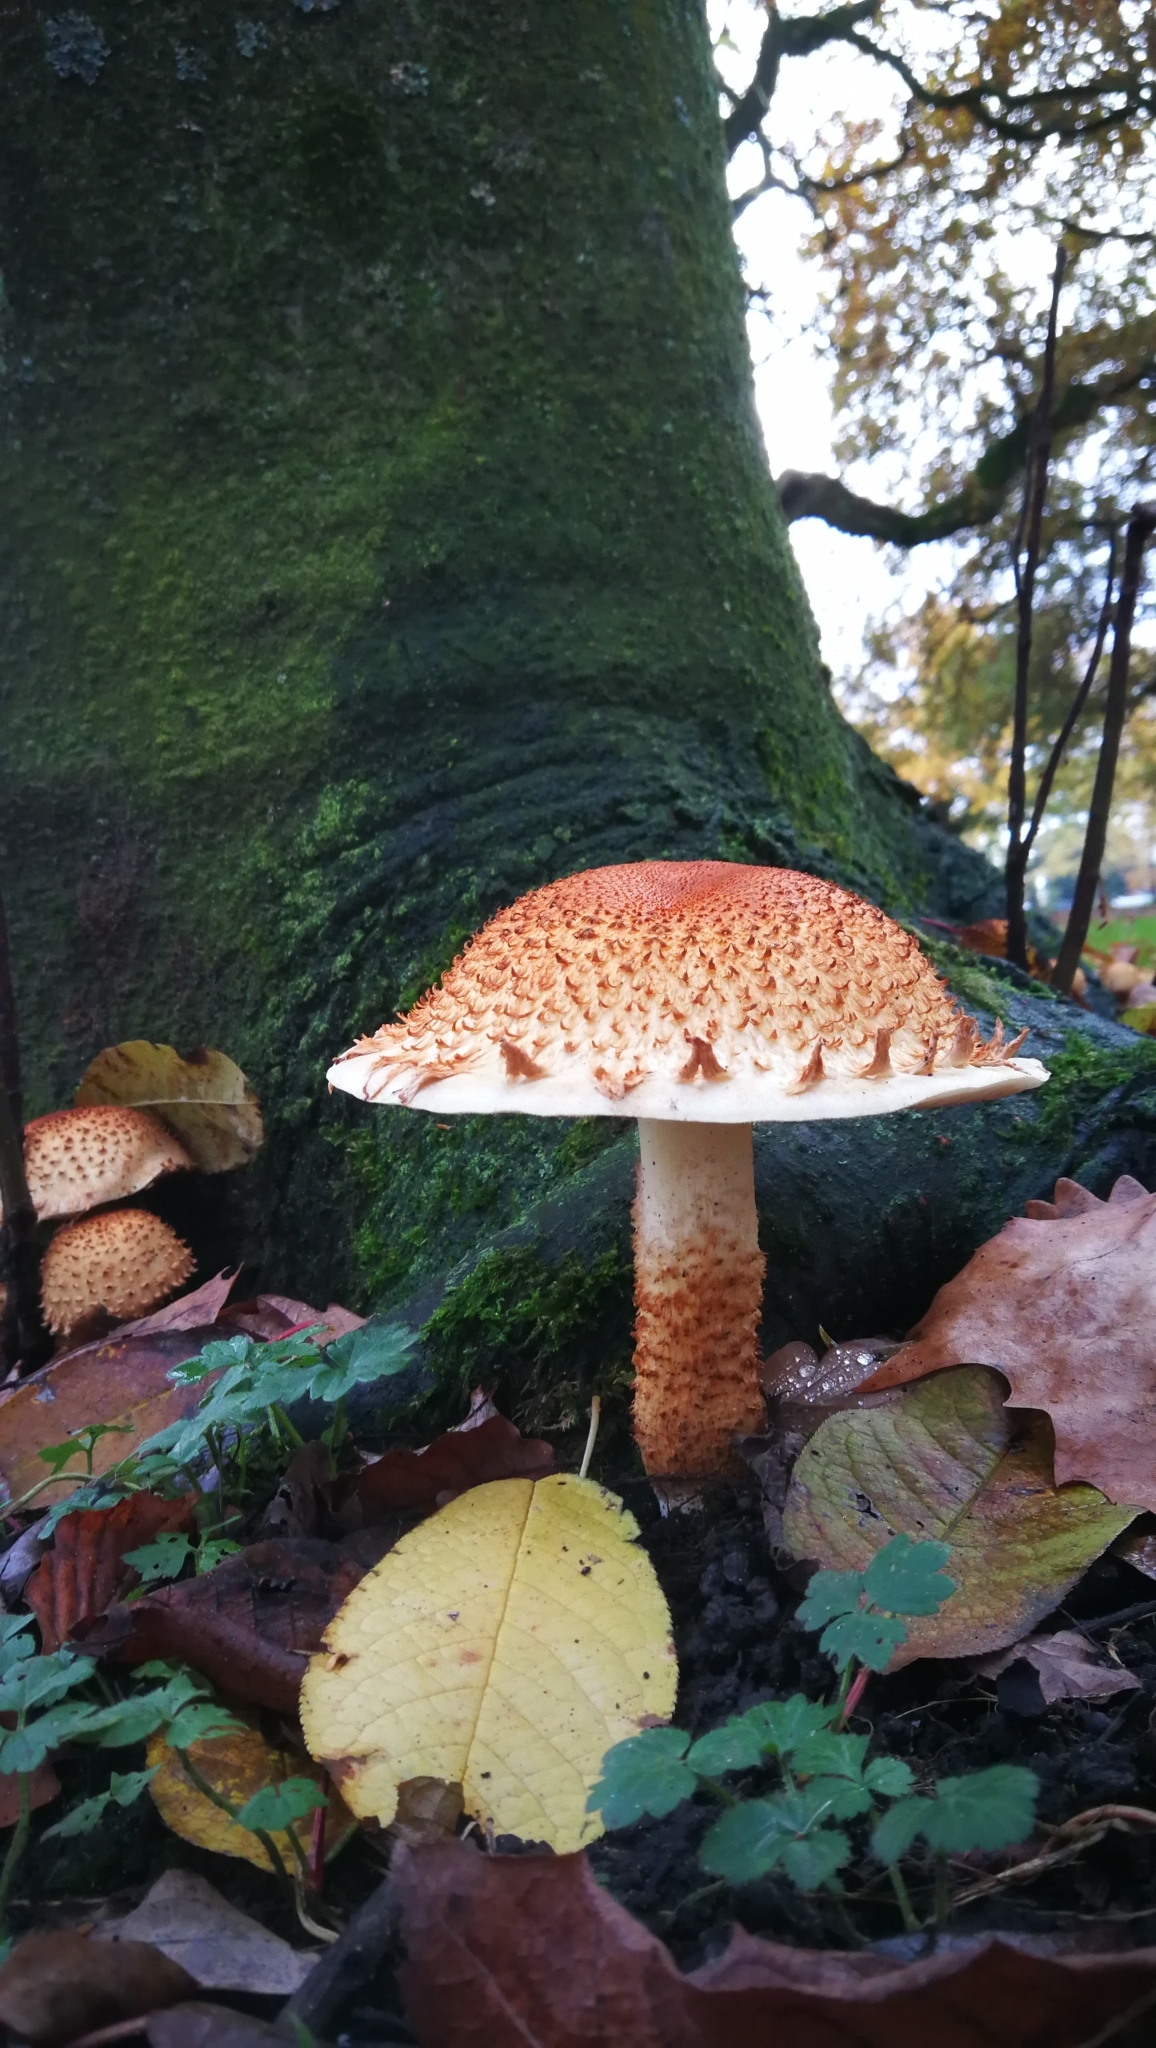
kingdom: Fungi
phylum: Basidiomycota
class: Agaricomycetes
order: Agaricales
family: Strophariaceae
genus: Pholiota
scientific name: Pholiota squarrosa
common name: Shaggy pholiota
